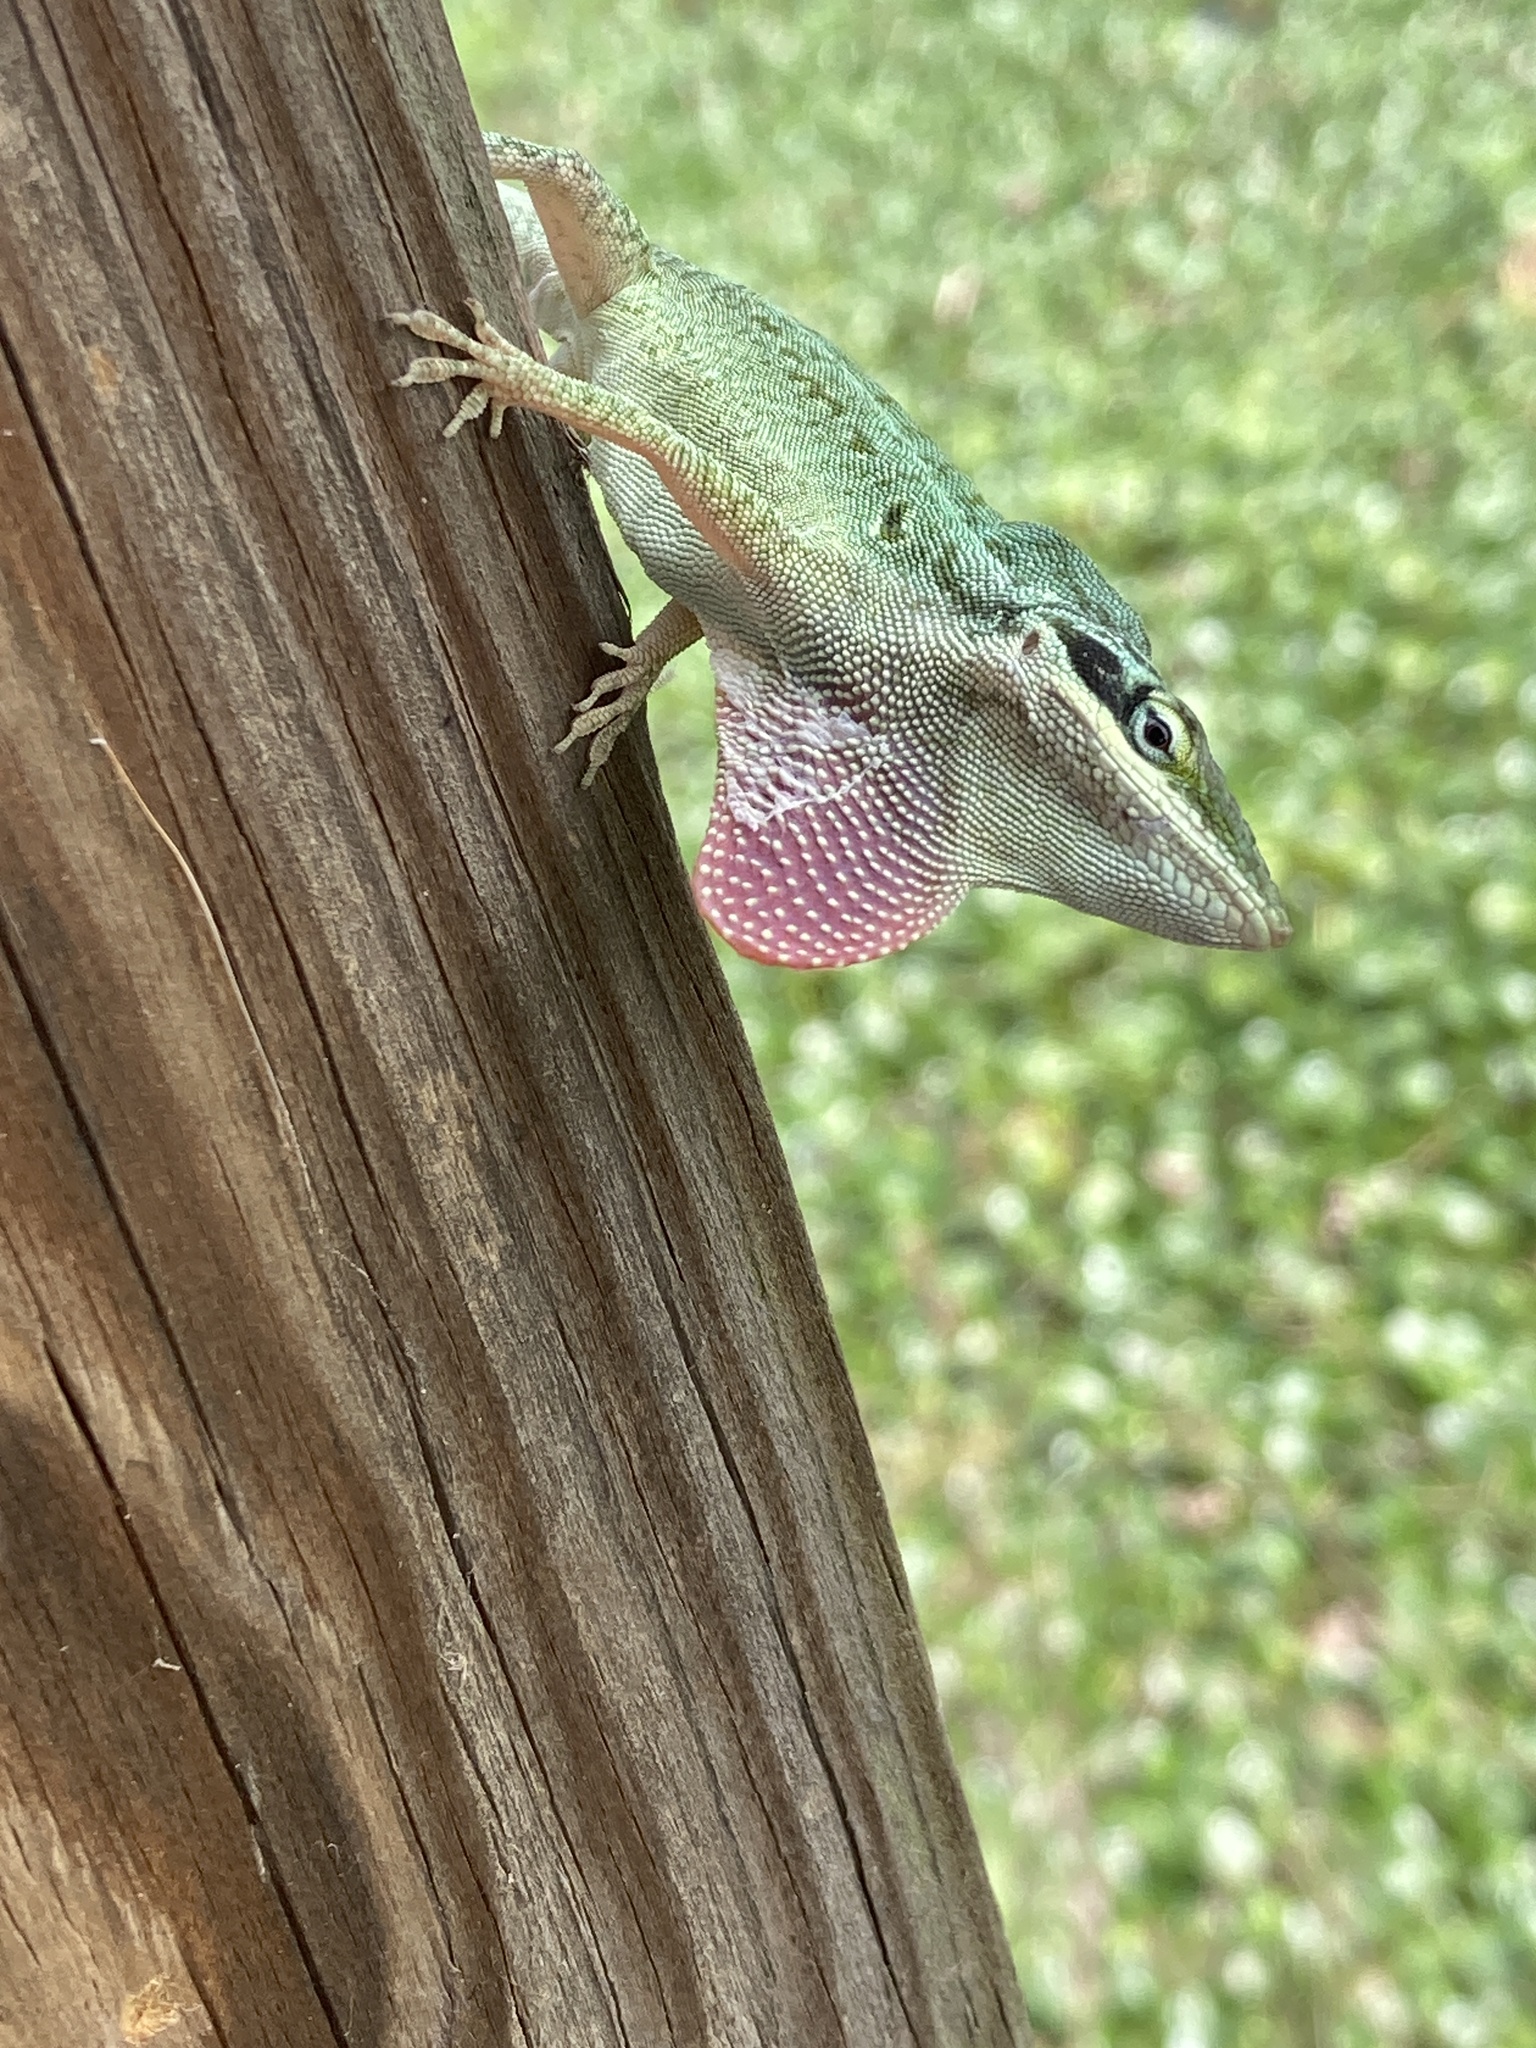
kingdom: Animalia
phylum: Chordata
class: Squamata
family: Dactyloidae
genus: Anolis
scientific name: Anolis carolinensis
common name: Green anole
